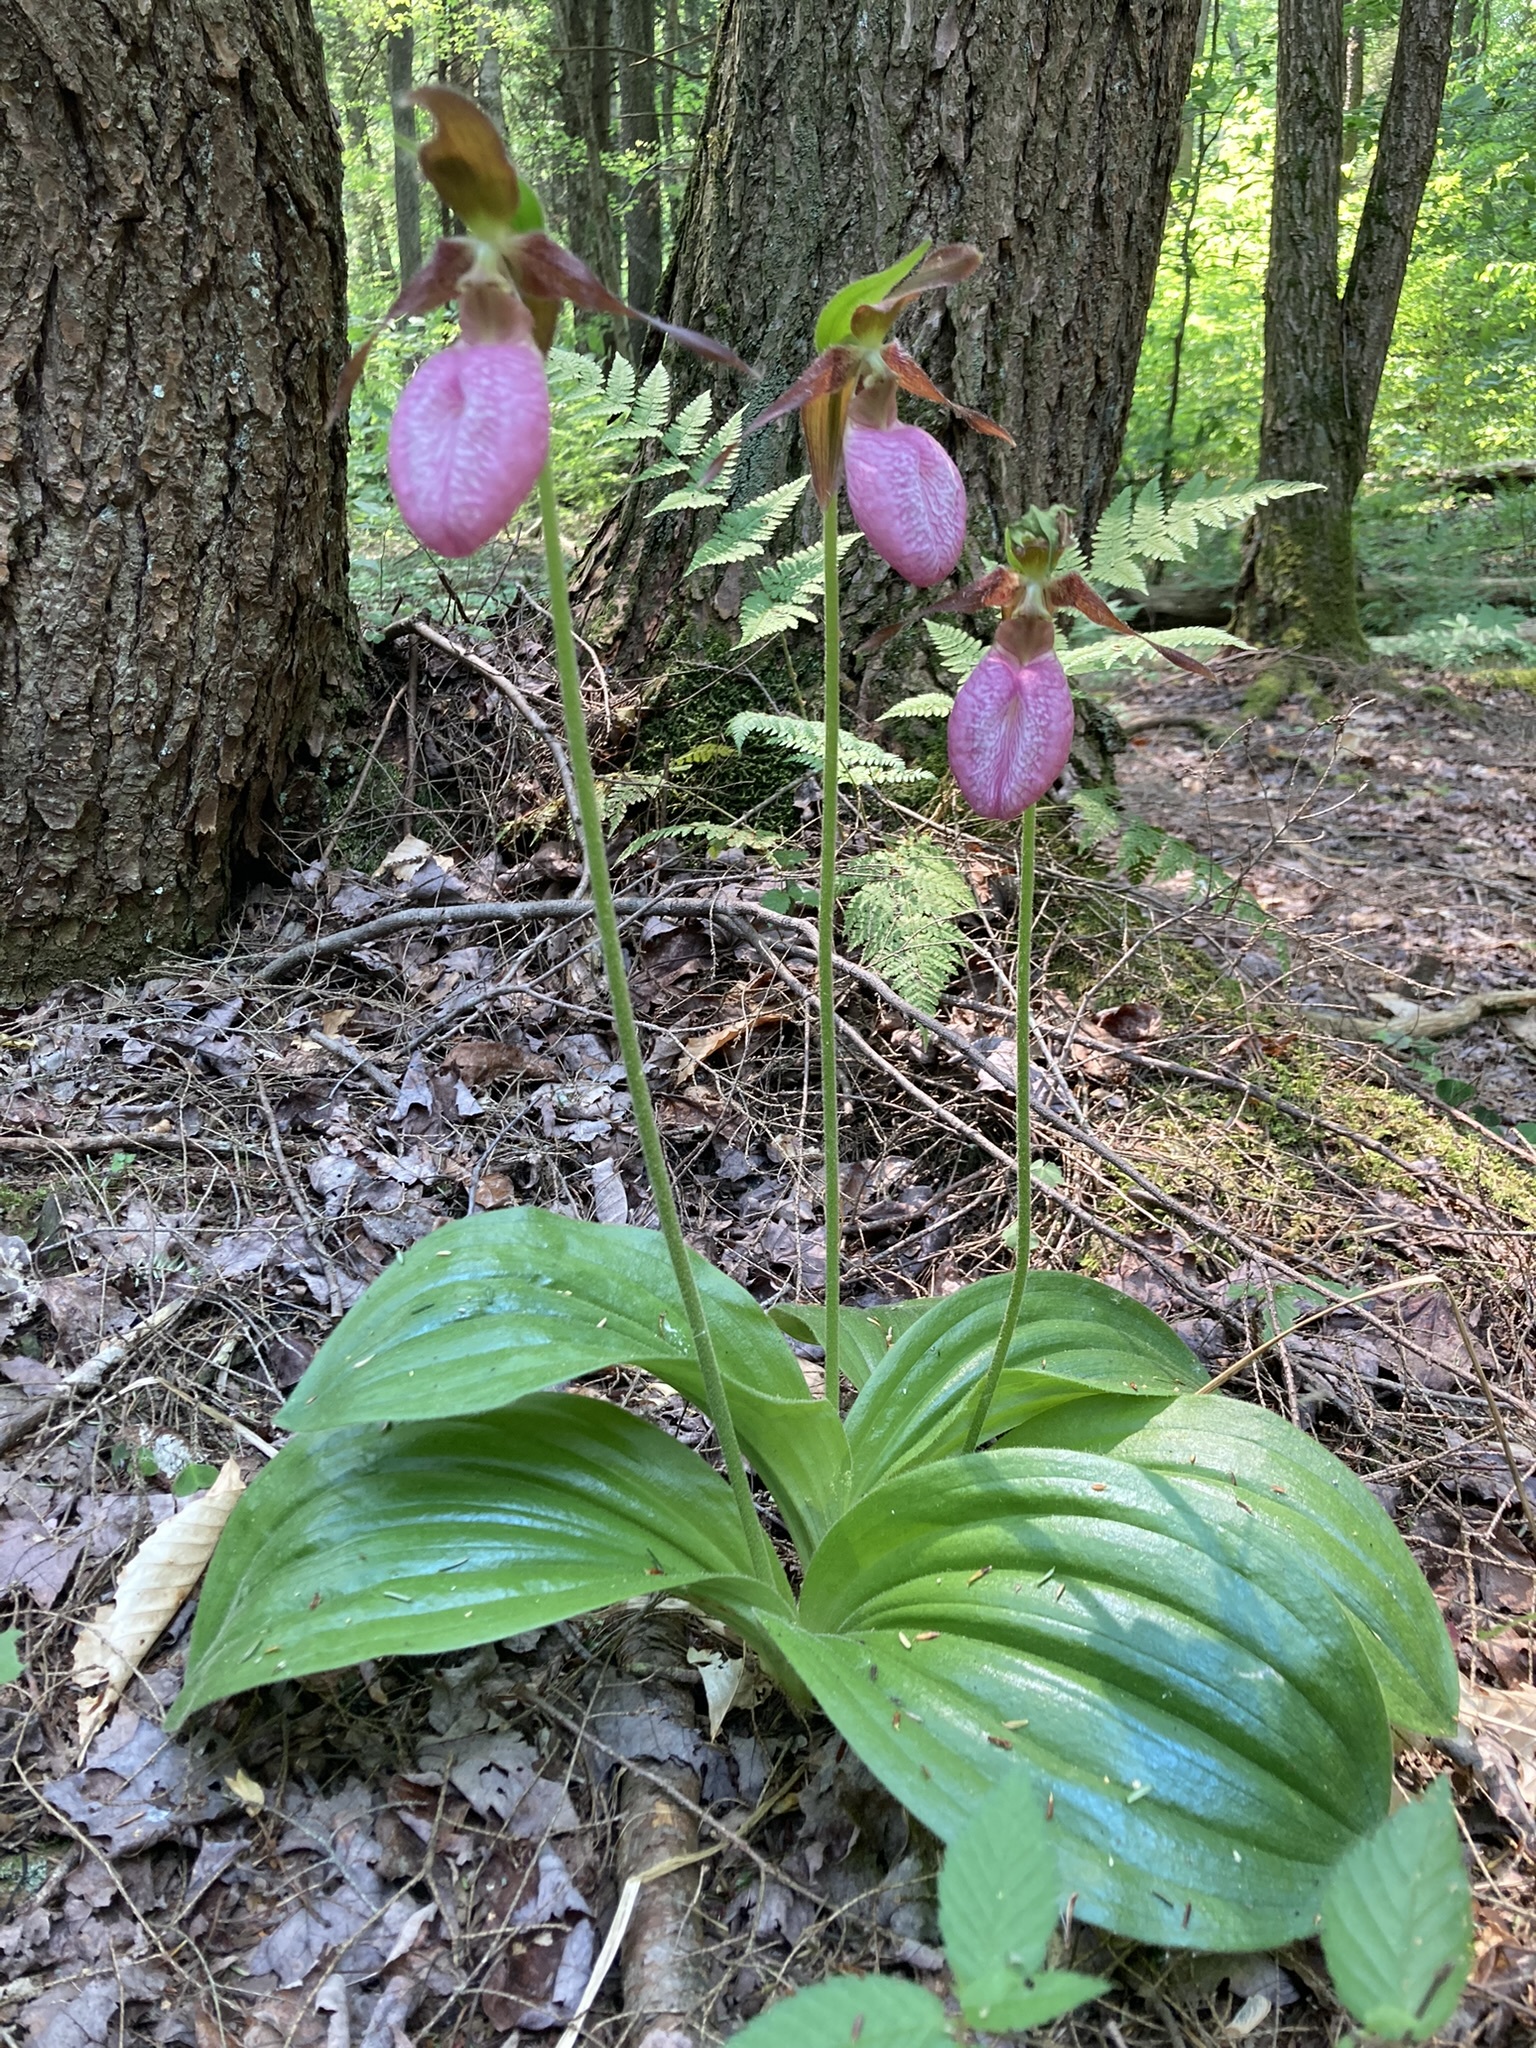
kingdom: Plantae
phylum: Tracheophyta
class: Liliopsida
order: Asparagales
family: Orchidaceae
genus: Cypripedium
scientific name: Cypripedium acaule
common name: Pink lady's-slipper
